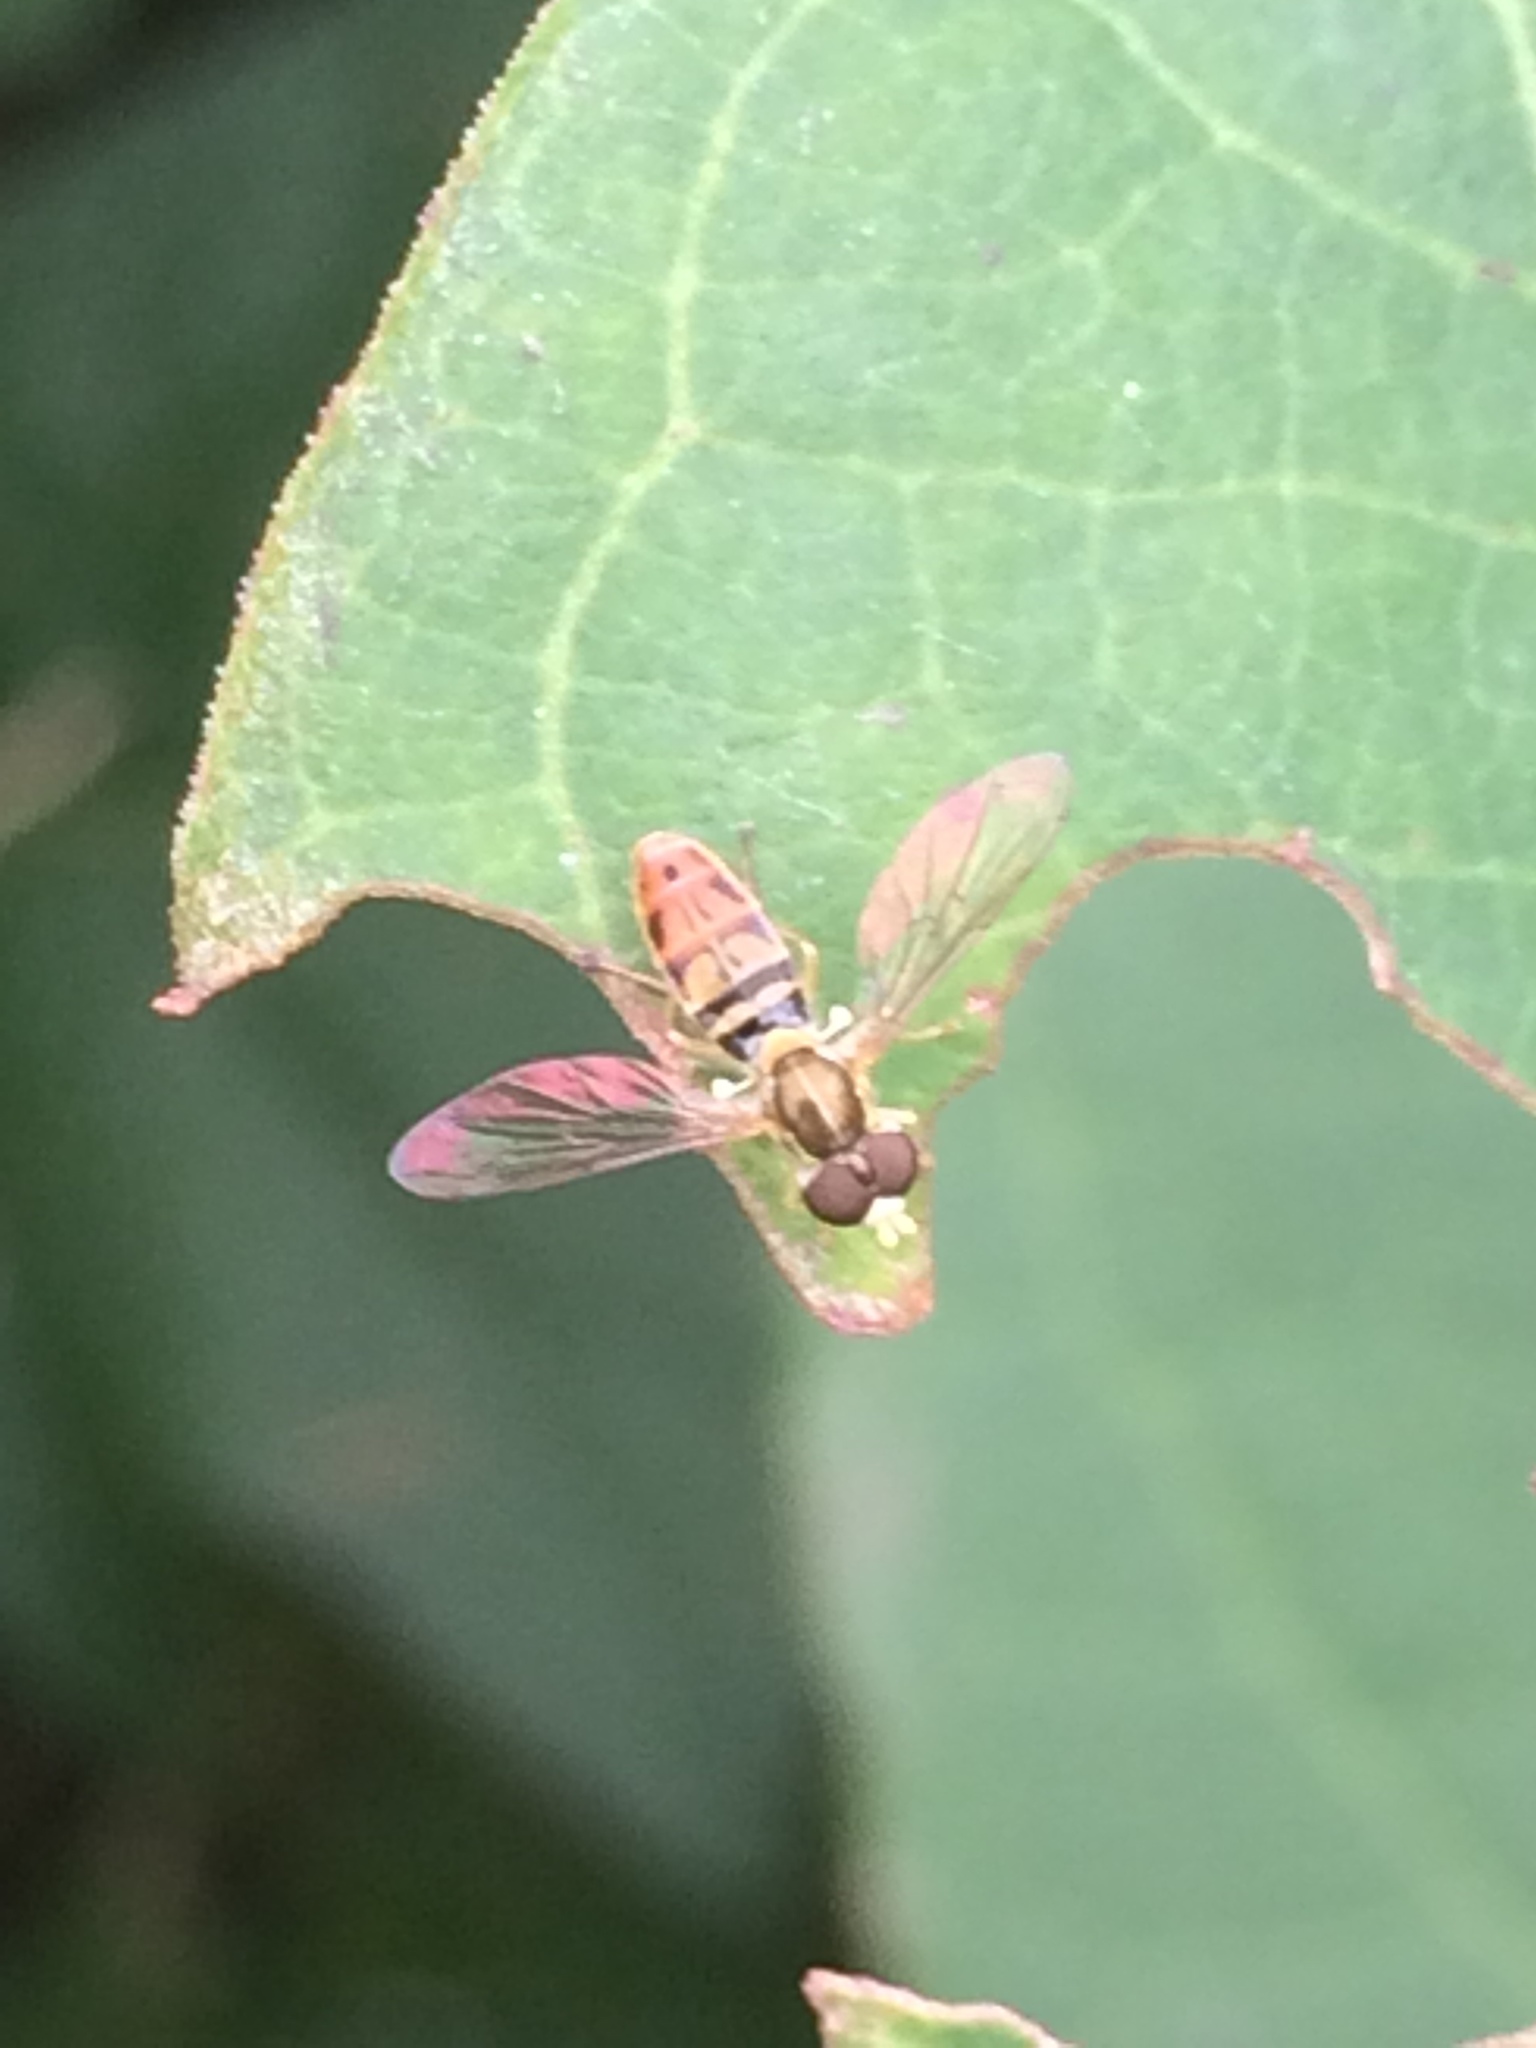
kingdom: Animalia
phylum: Arthropoda
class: Insecta
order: Diptera
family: Syrphidae
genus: Toxomerus
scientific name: Toxomerus marginatus
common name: Syrphid fly
